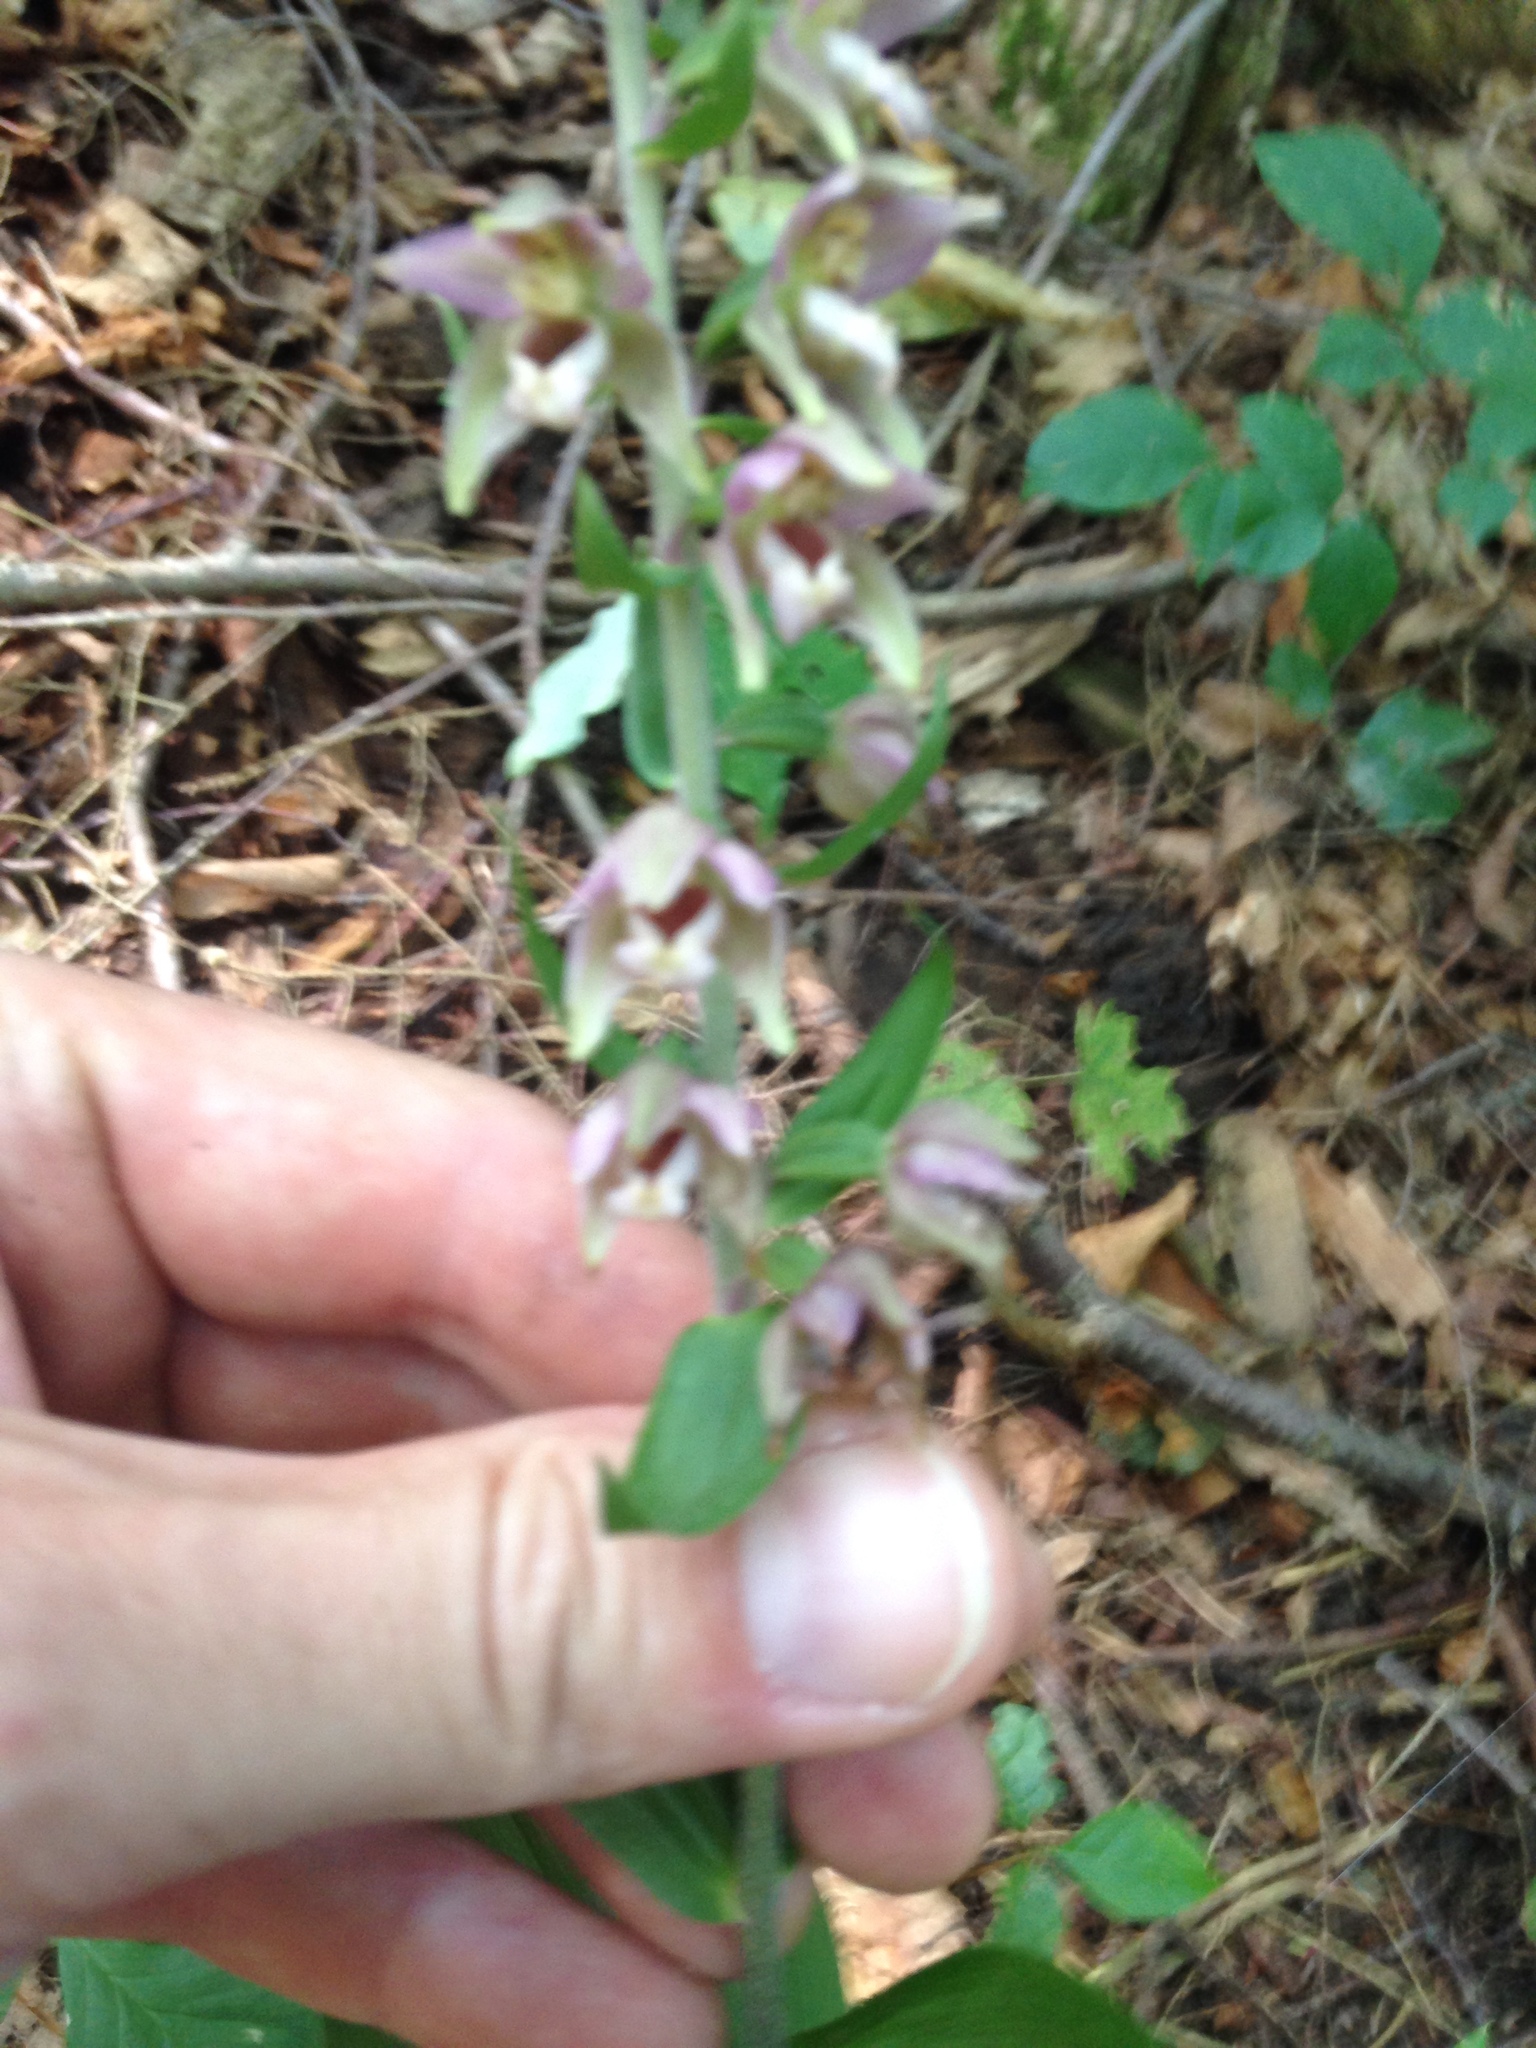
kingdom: Plantae
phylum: Tracheophyta
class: Liliopsida
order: Asparagales
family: Orchidaceae
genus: Epipactis
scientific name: Epipactis helleborine
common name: Broad-leaved helleborine
